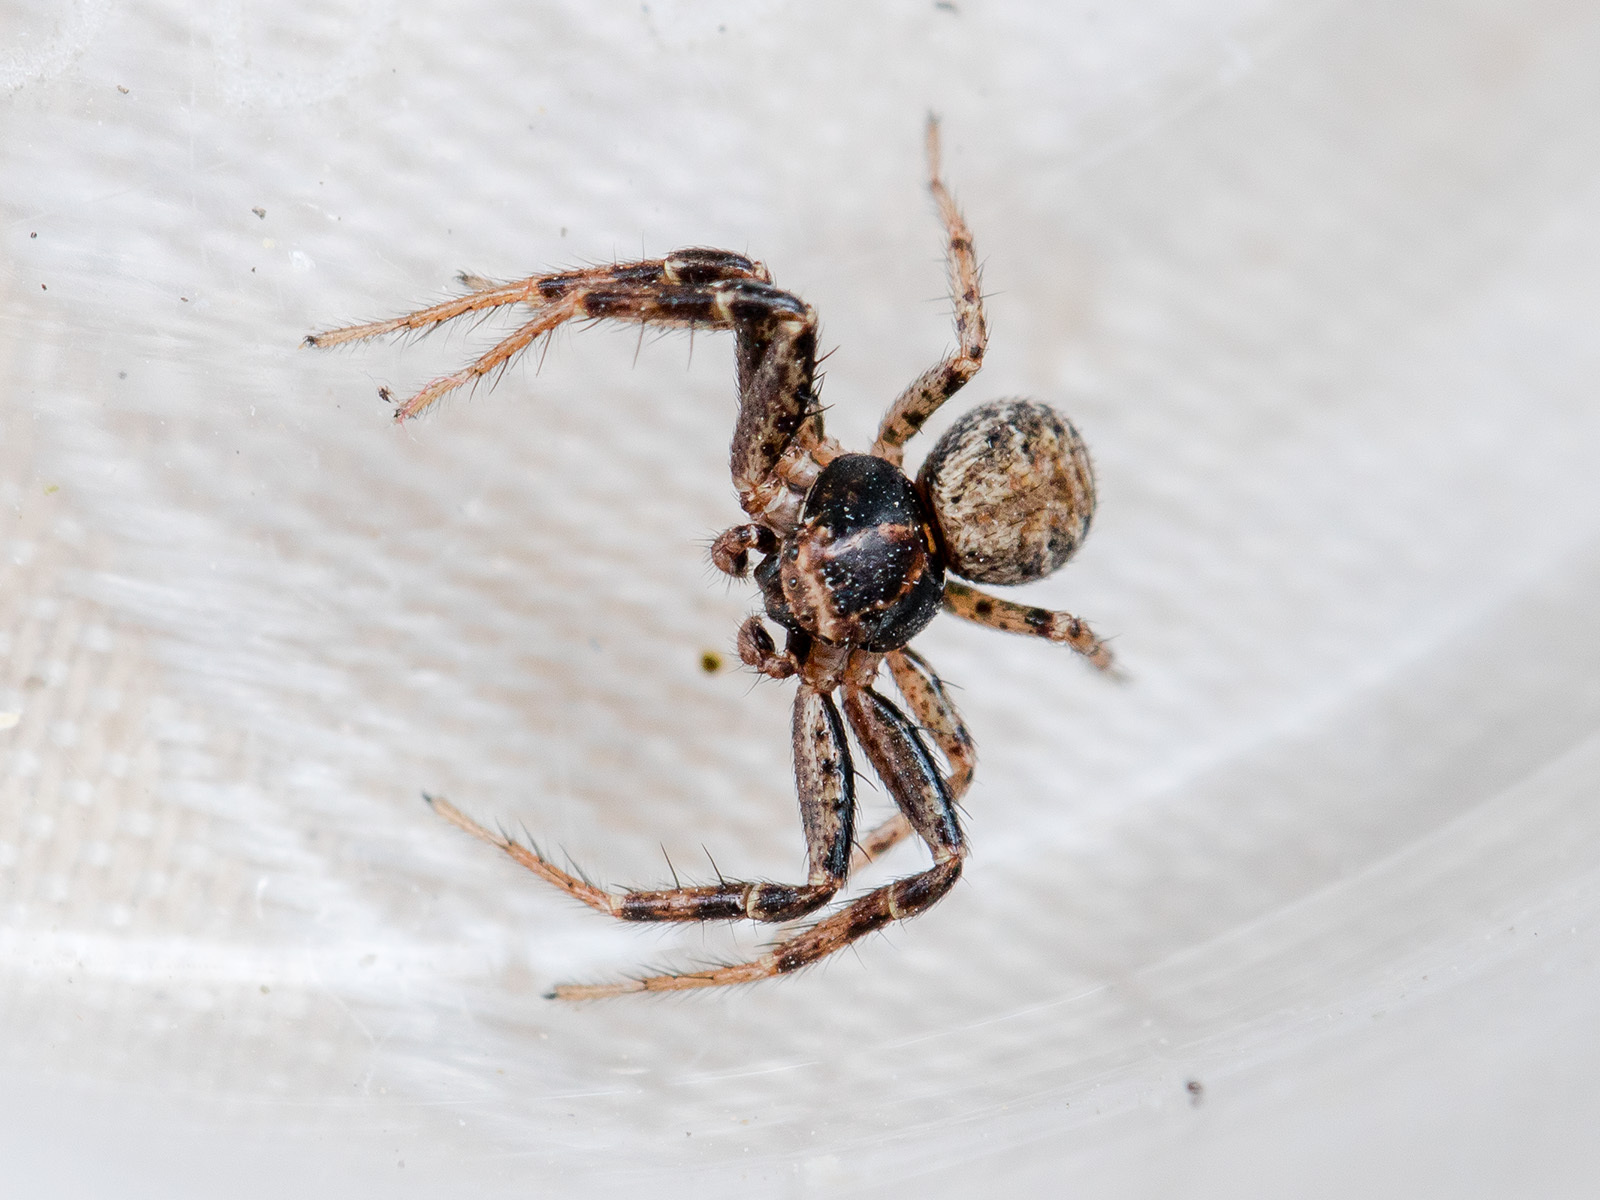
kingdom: Animalia
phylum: Arthropoda
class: Arachnida
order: Araneae
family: Thomisidae
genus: Psammitis
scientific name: Psammitis minor
